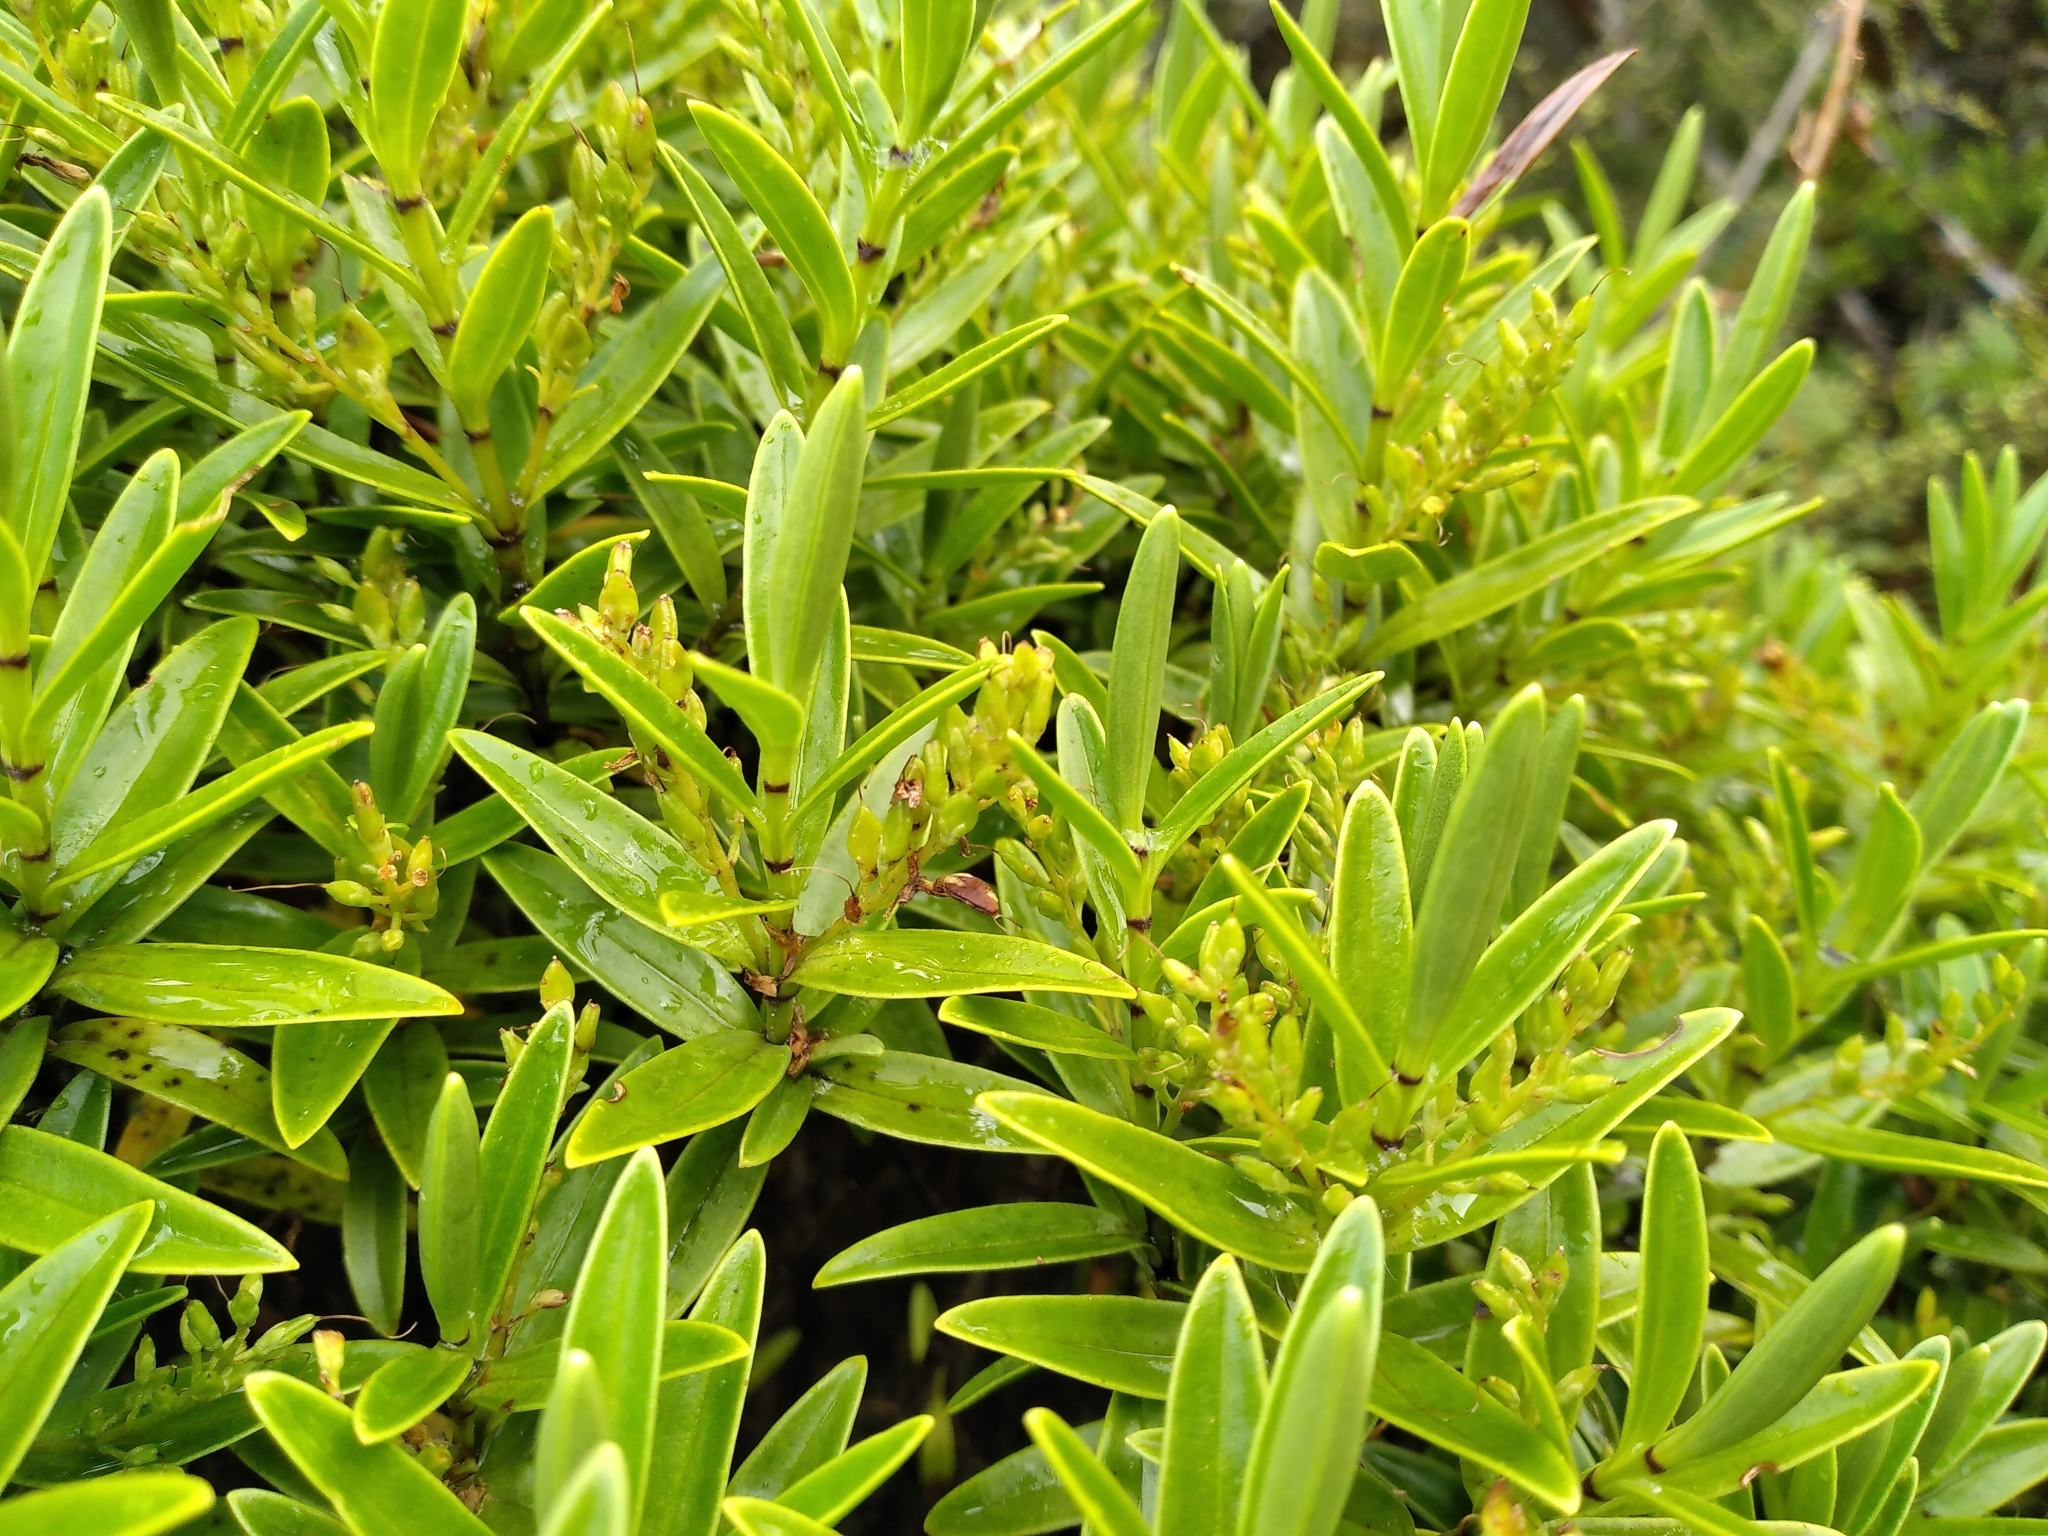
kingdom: Plantae
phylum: Tracheophyta
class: Magnoliopsida
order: Lamiales
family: Plantaginaceae
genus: Veronica
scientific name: Veronica subalpina
